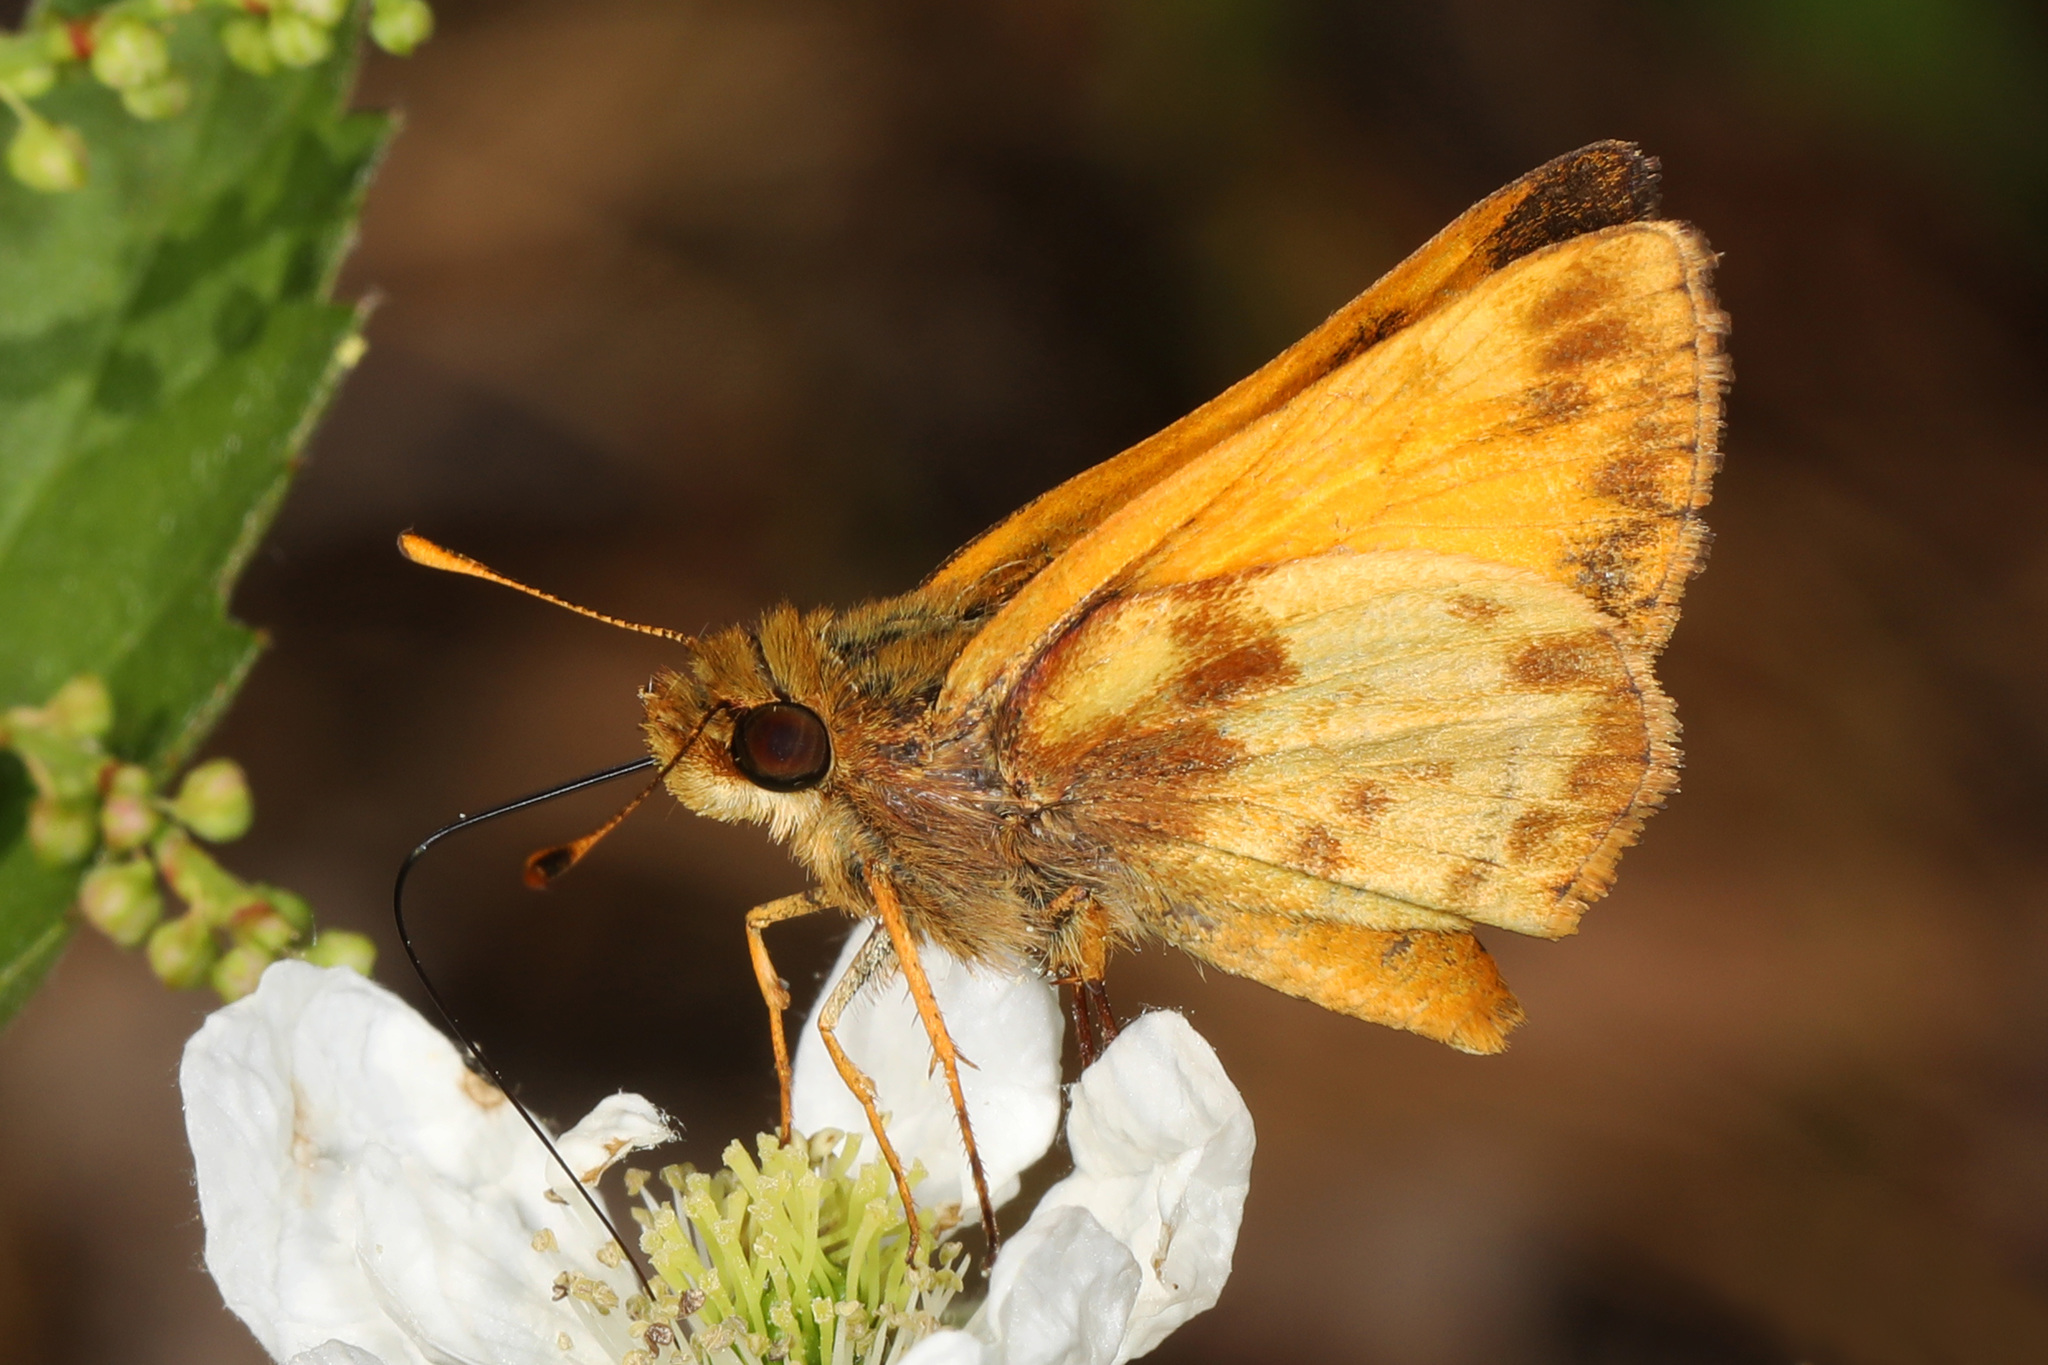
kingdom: Animalia
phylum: Arthropoda
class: Insecta
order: Lepidoptera
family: Hesperiidae
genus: Lon
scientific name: Lon zabulon
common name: Zabulon skipper
